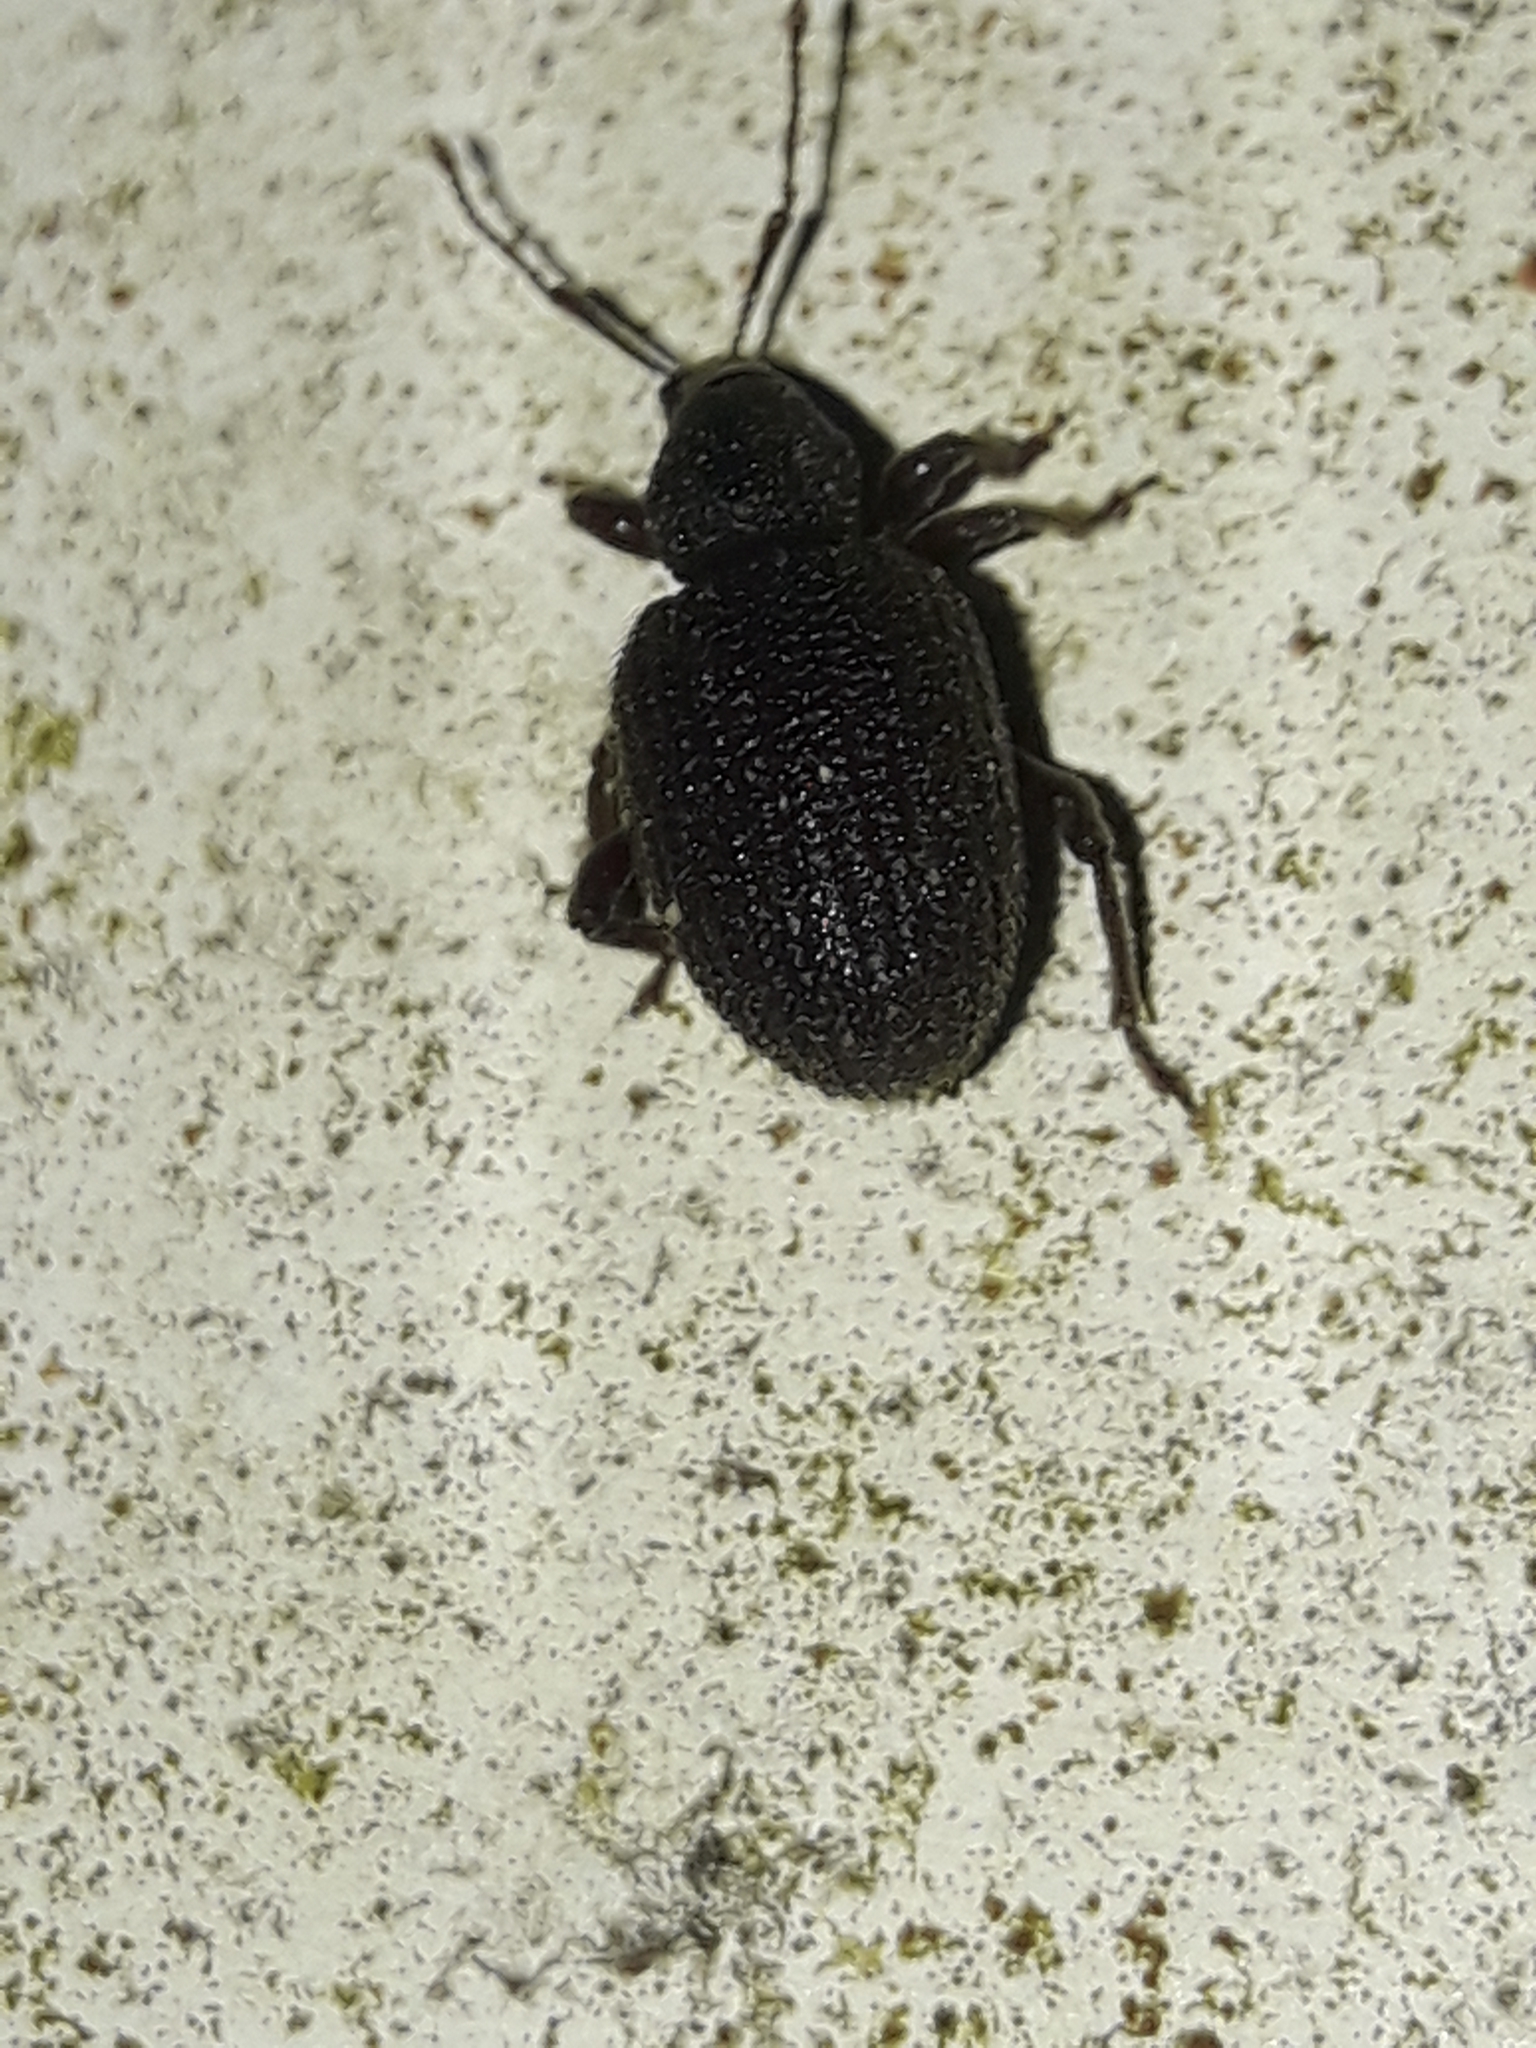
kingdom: Animalia
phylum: Arthropoda
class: Insecta
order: Coleoptera
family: Curculionidae
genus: Otiorhynchus
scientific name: Otiorhynchus rugosostriatus
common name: Weevil
